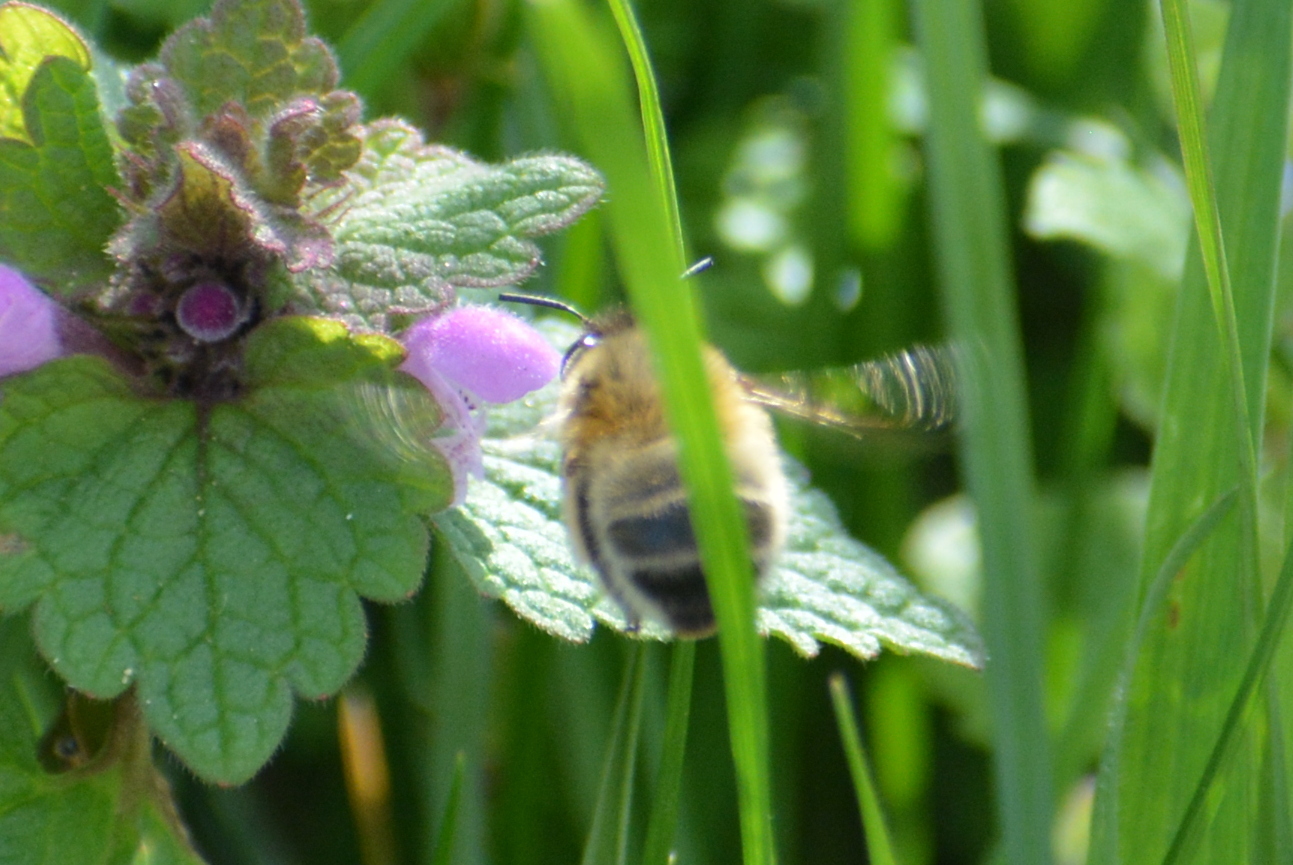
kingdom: Animalia
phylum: Arthropoda
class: Insecta
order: Hymenoptera
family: Apidae
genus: Anthophora
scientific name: Anthophora plumipes
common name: Hairy-footed flower bee
